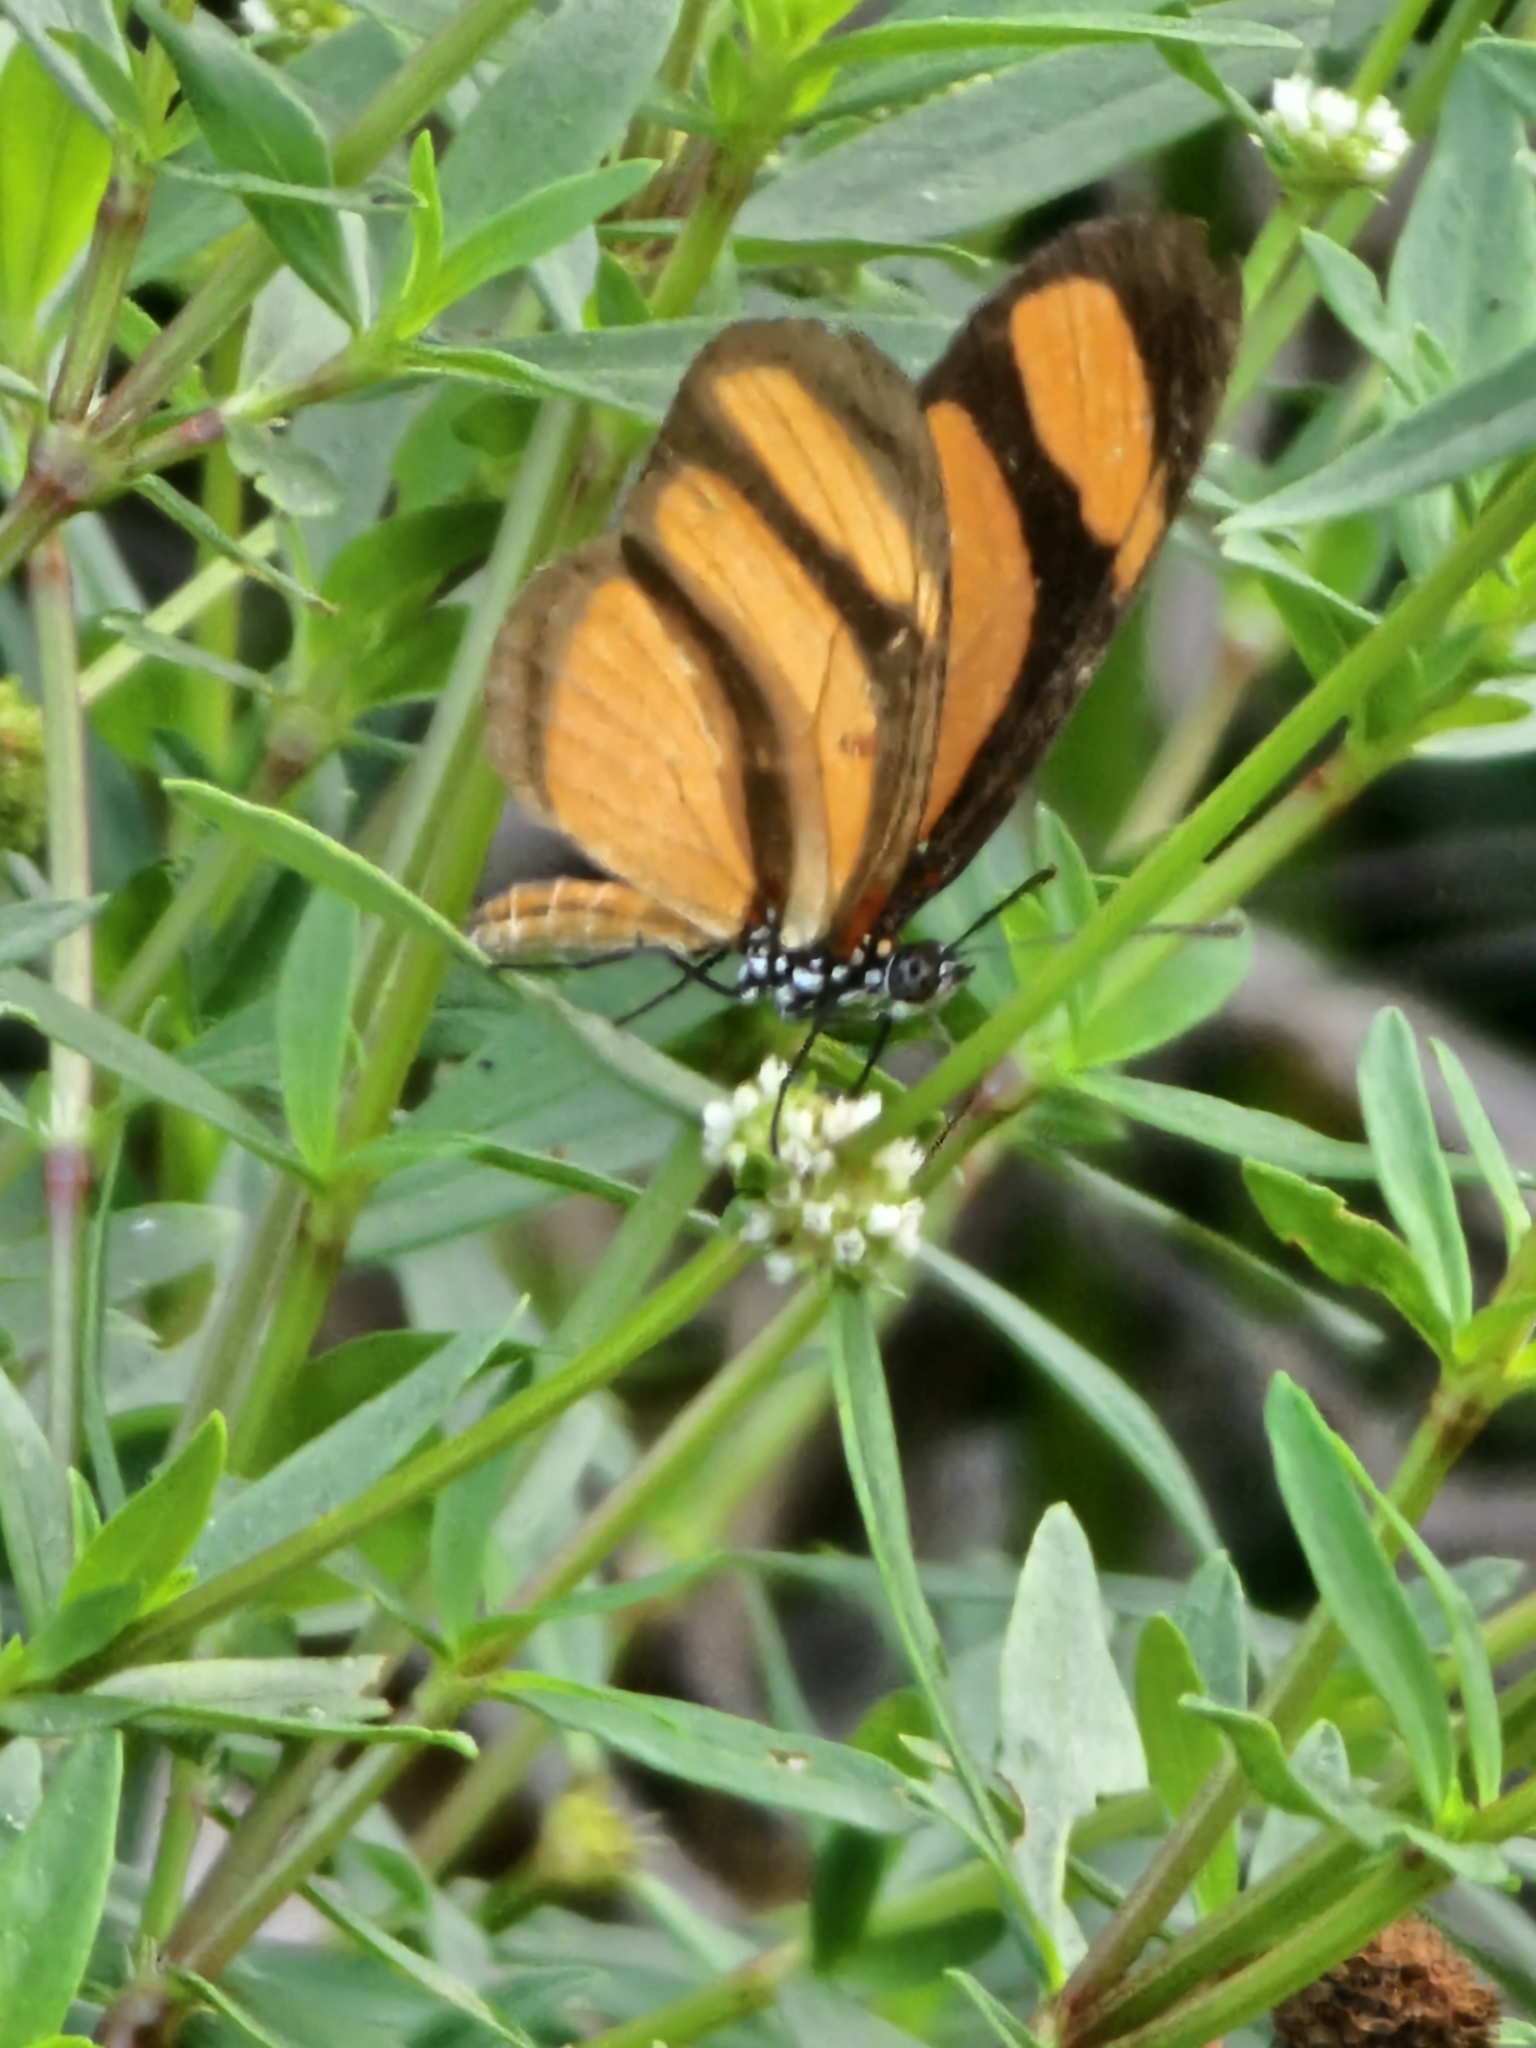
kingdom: Animalia
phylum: Arthropoda
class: Insecta
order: Lepidoptera
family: Nymphalidae
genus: Eueides
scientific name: Eueides lybia
